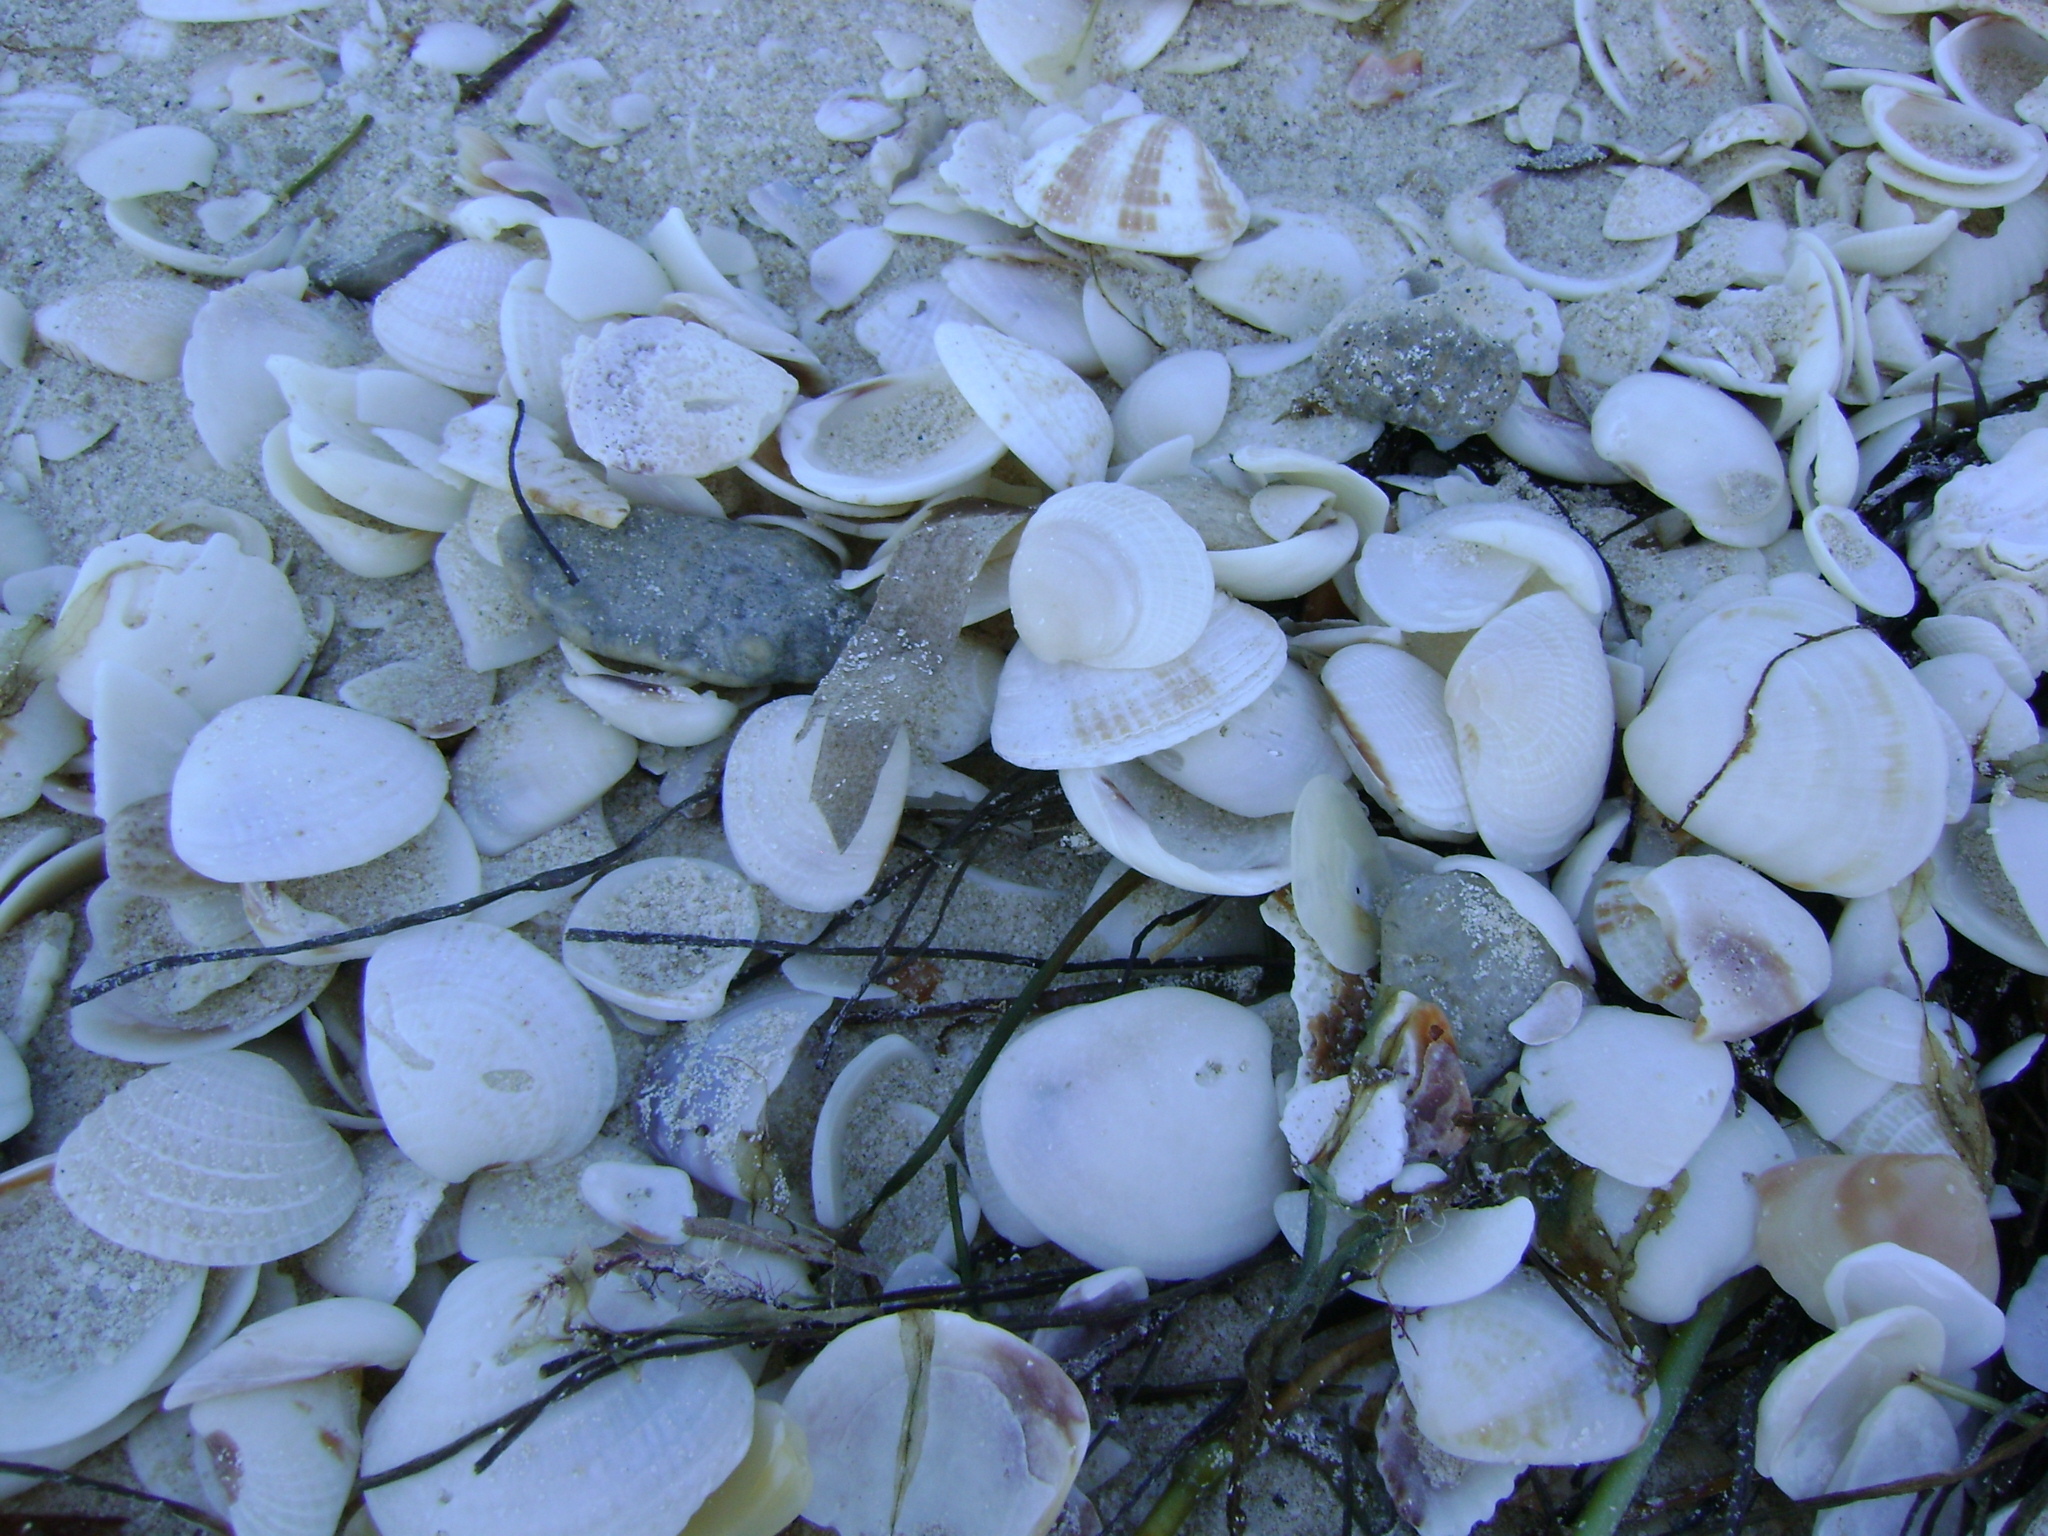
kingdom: Animalia
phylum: Mollusca
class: Bivalvia
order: Venerida
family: Veneridae
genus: Chione
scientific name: Chione elevata
